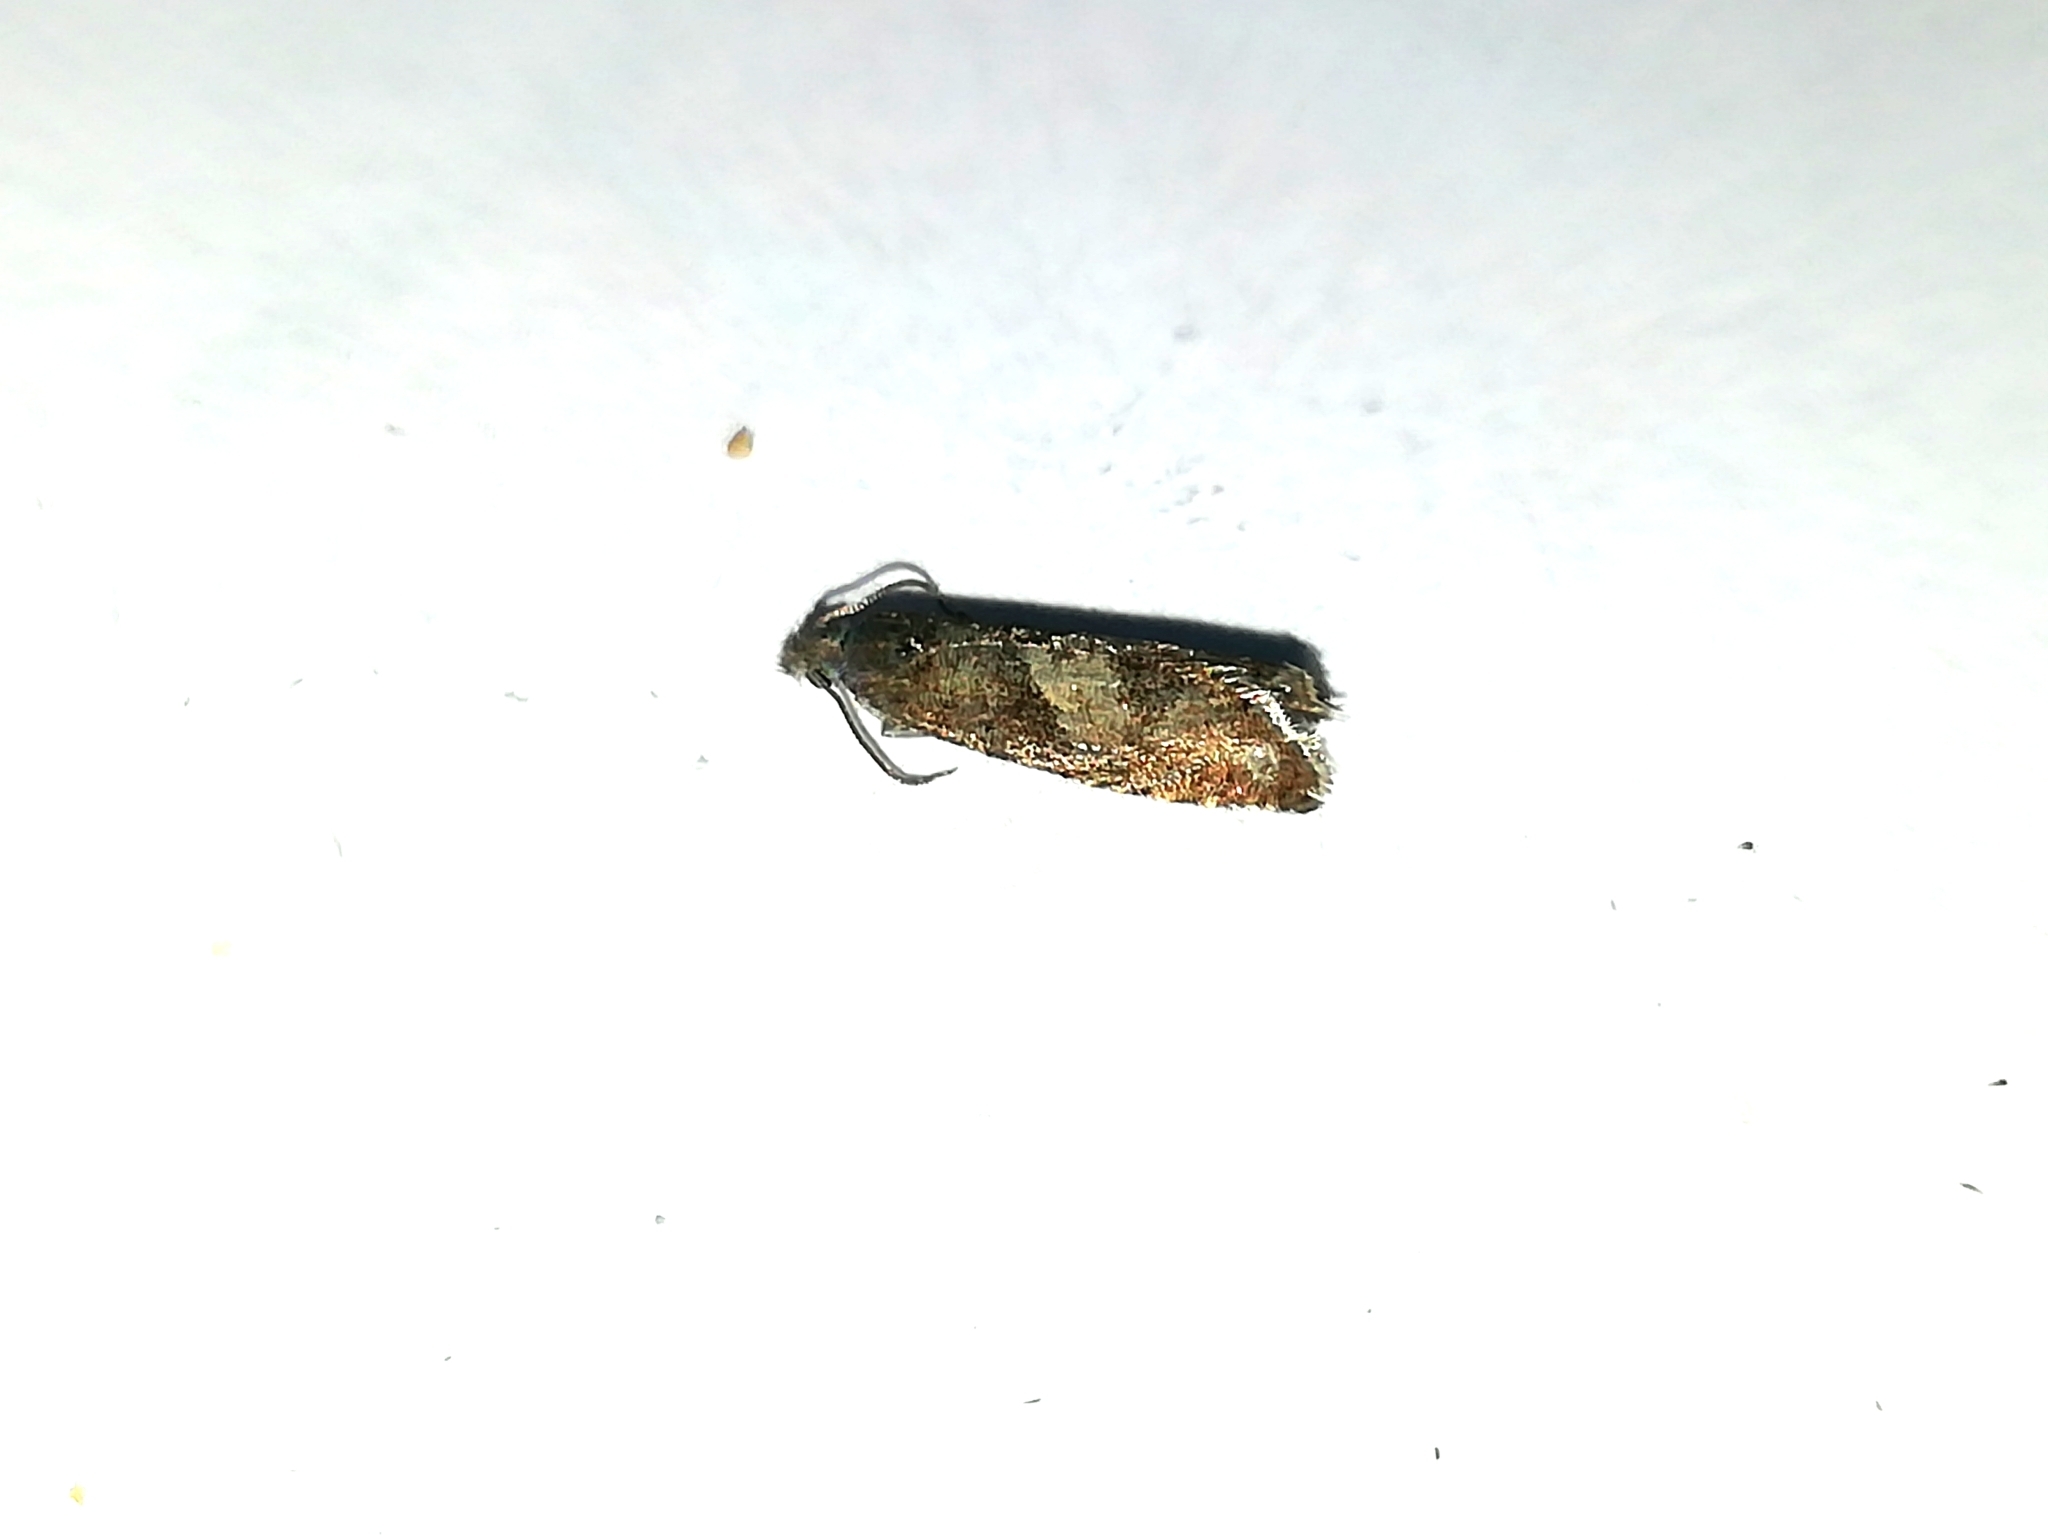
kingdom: Animalia
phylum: Arthropoda
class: Insecta
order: Lepidoptera
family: Tortricidae
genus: Dichrorampha
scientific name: Dichrorampha aeratana
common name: Obscure drill
